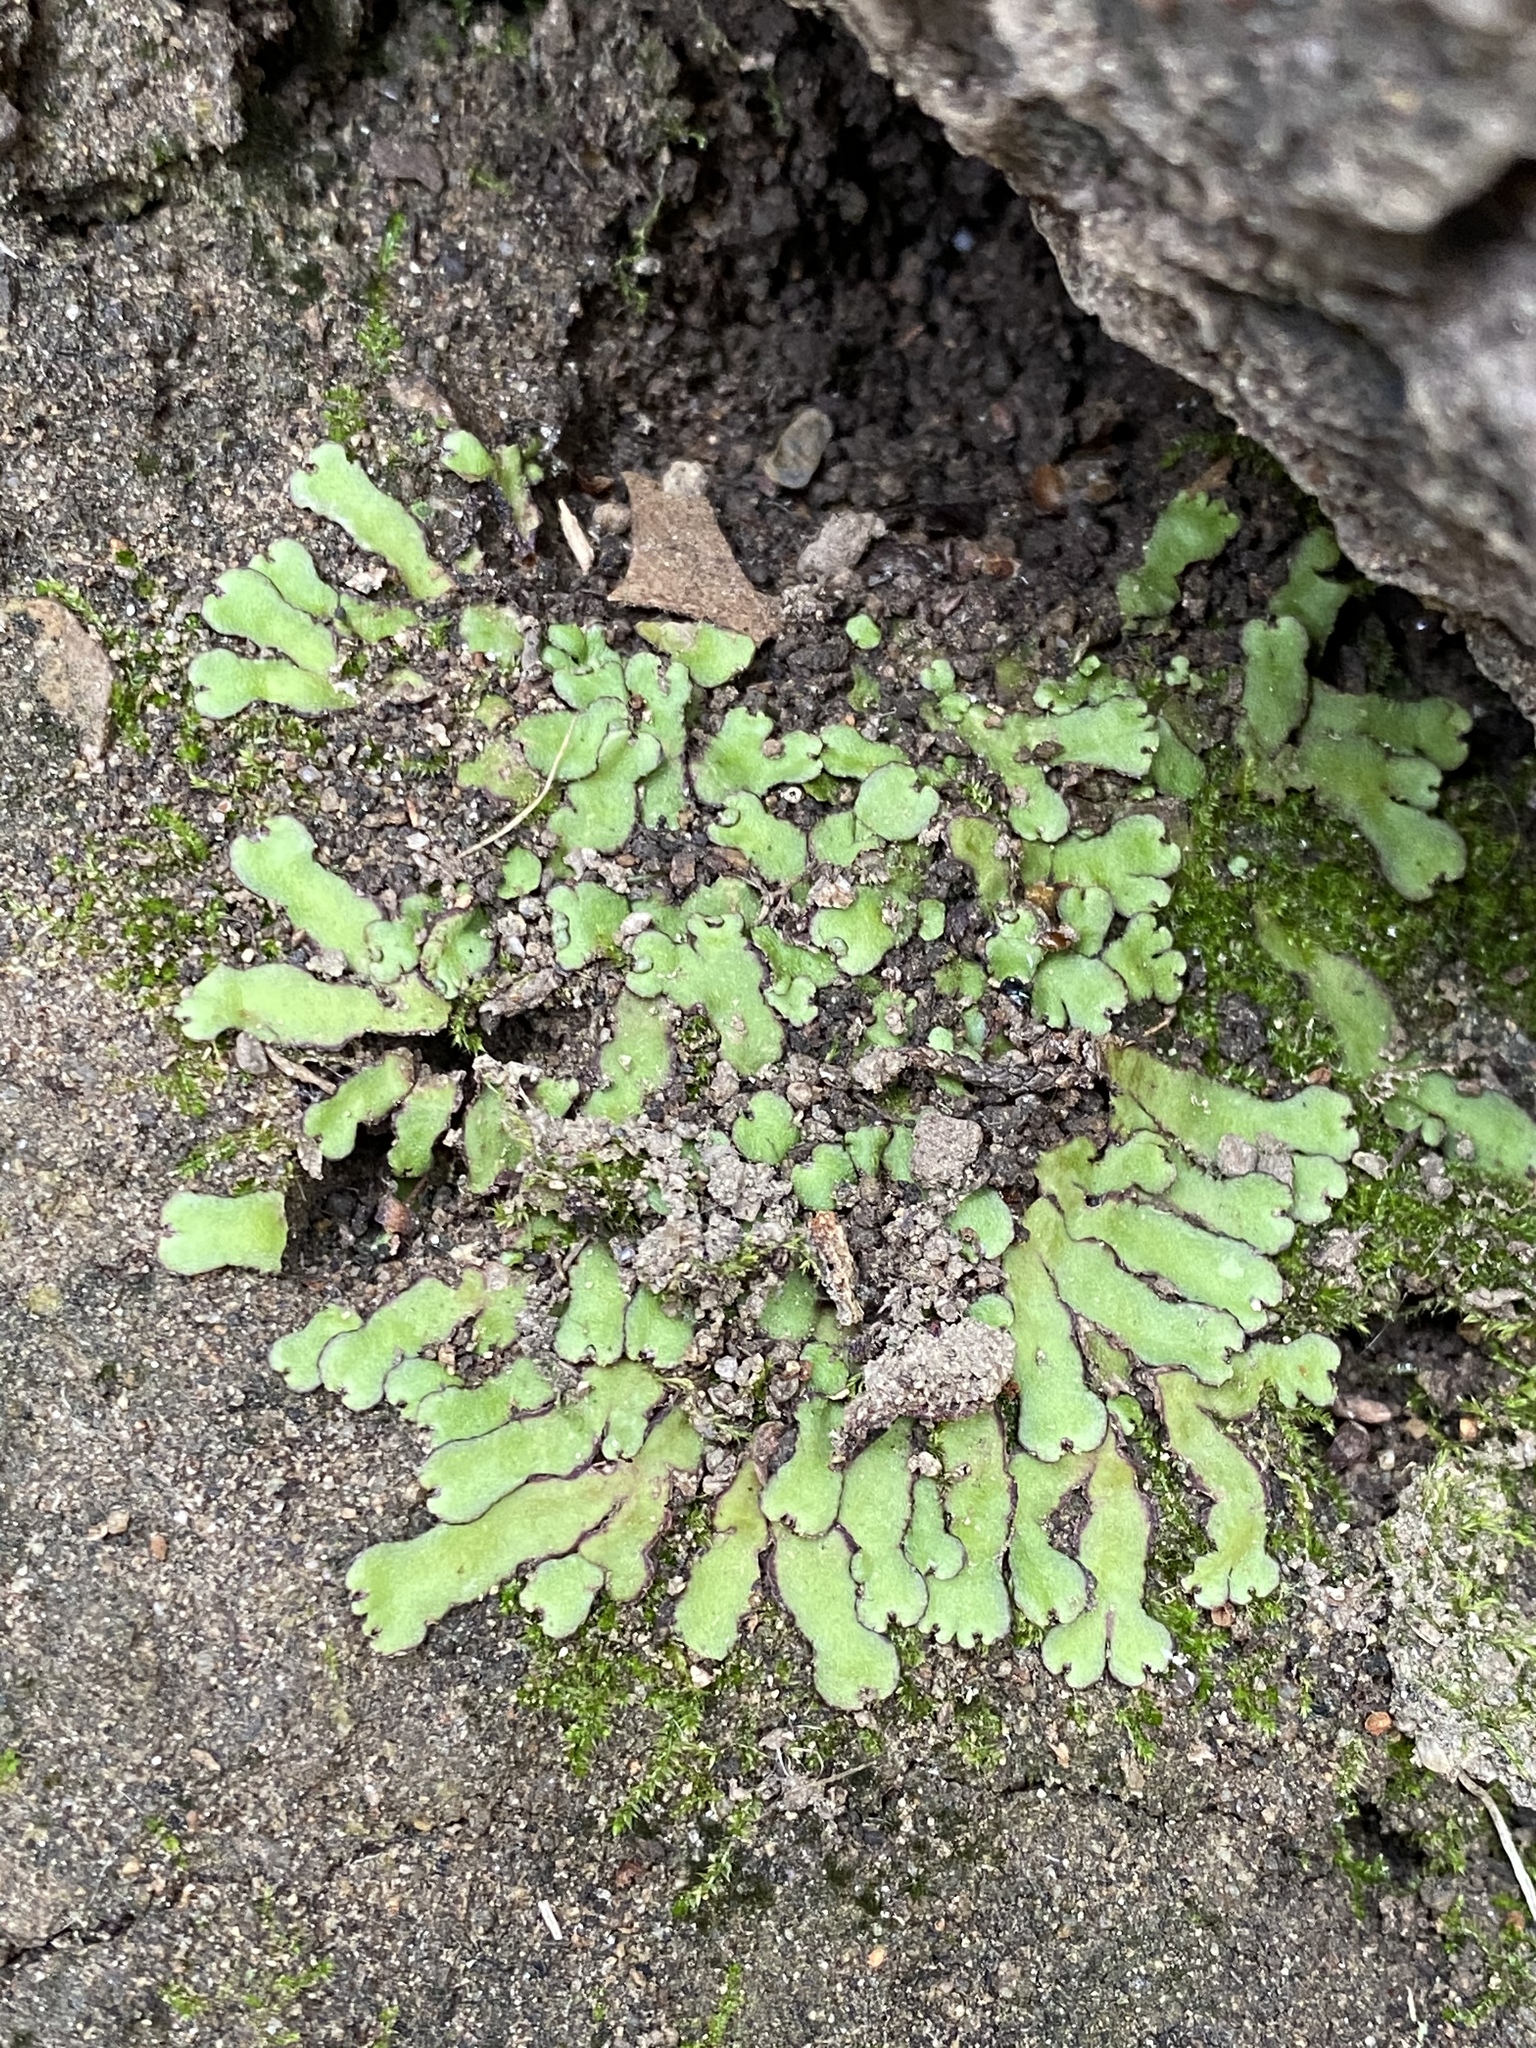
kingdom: Plantae
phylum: Marchantiophyta
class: Marchantiopsida
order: Marchantiales
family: Aytoniaceae
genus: Reboulia
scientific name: Reboulia hemisphaerica
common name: Purple-margined liverwort
